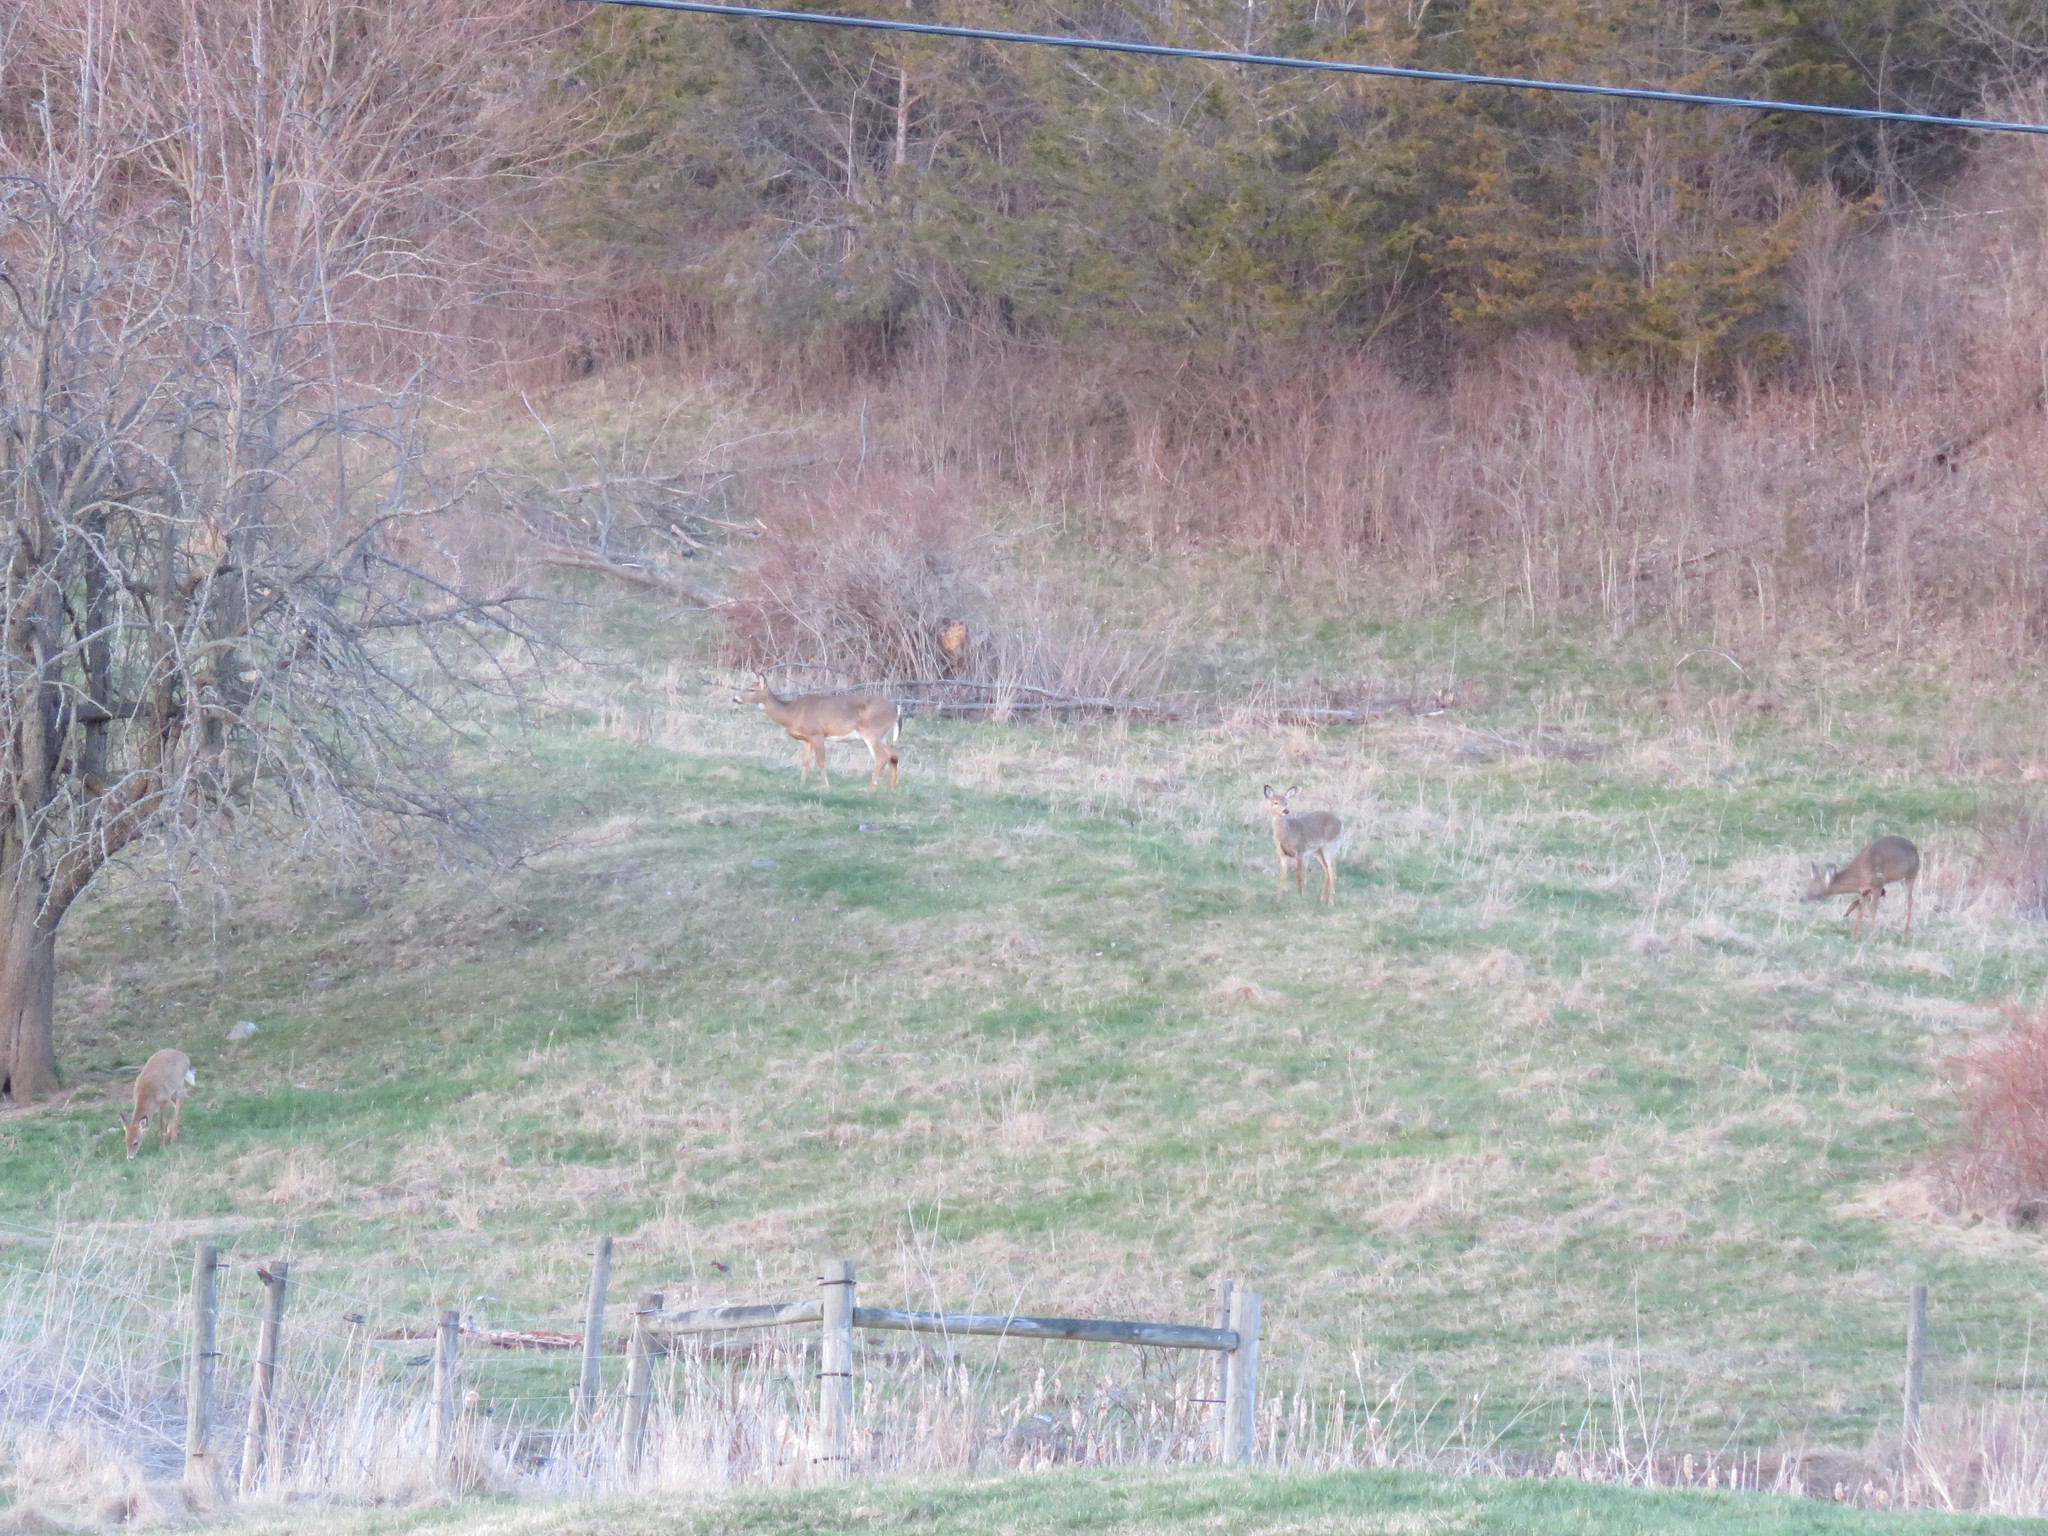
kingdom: Animalia
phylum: Chordata
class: Mammalia
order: Artiodactyla
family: Cervidae
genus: Odocoileus
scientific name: Odocoileus virginianus
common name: White-tailed deer
